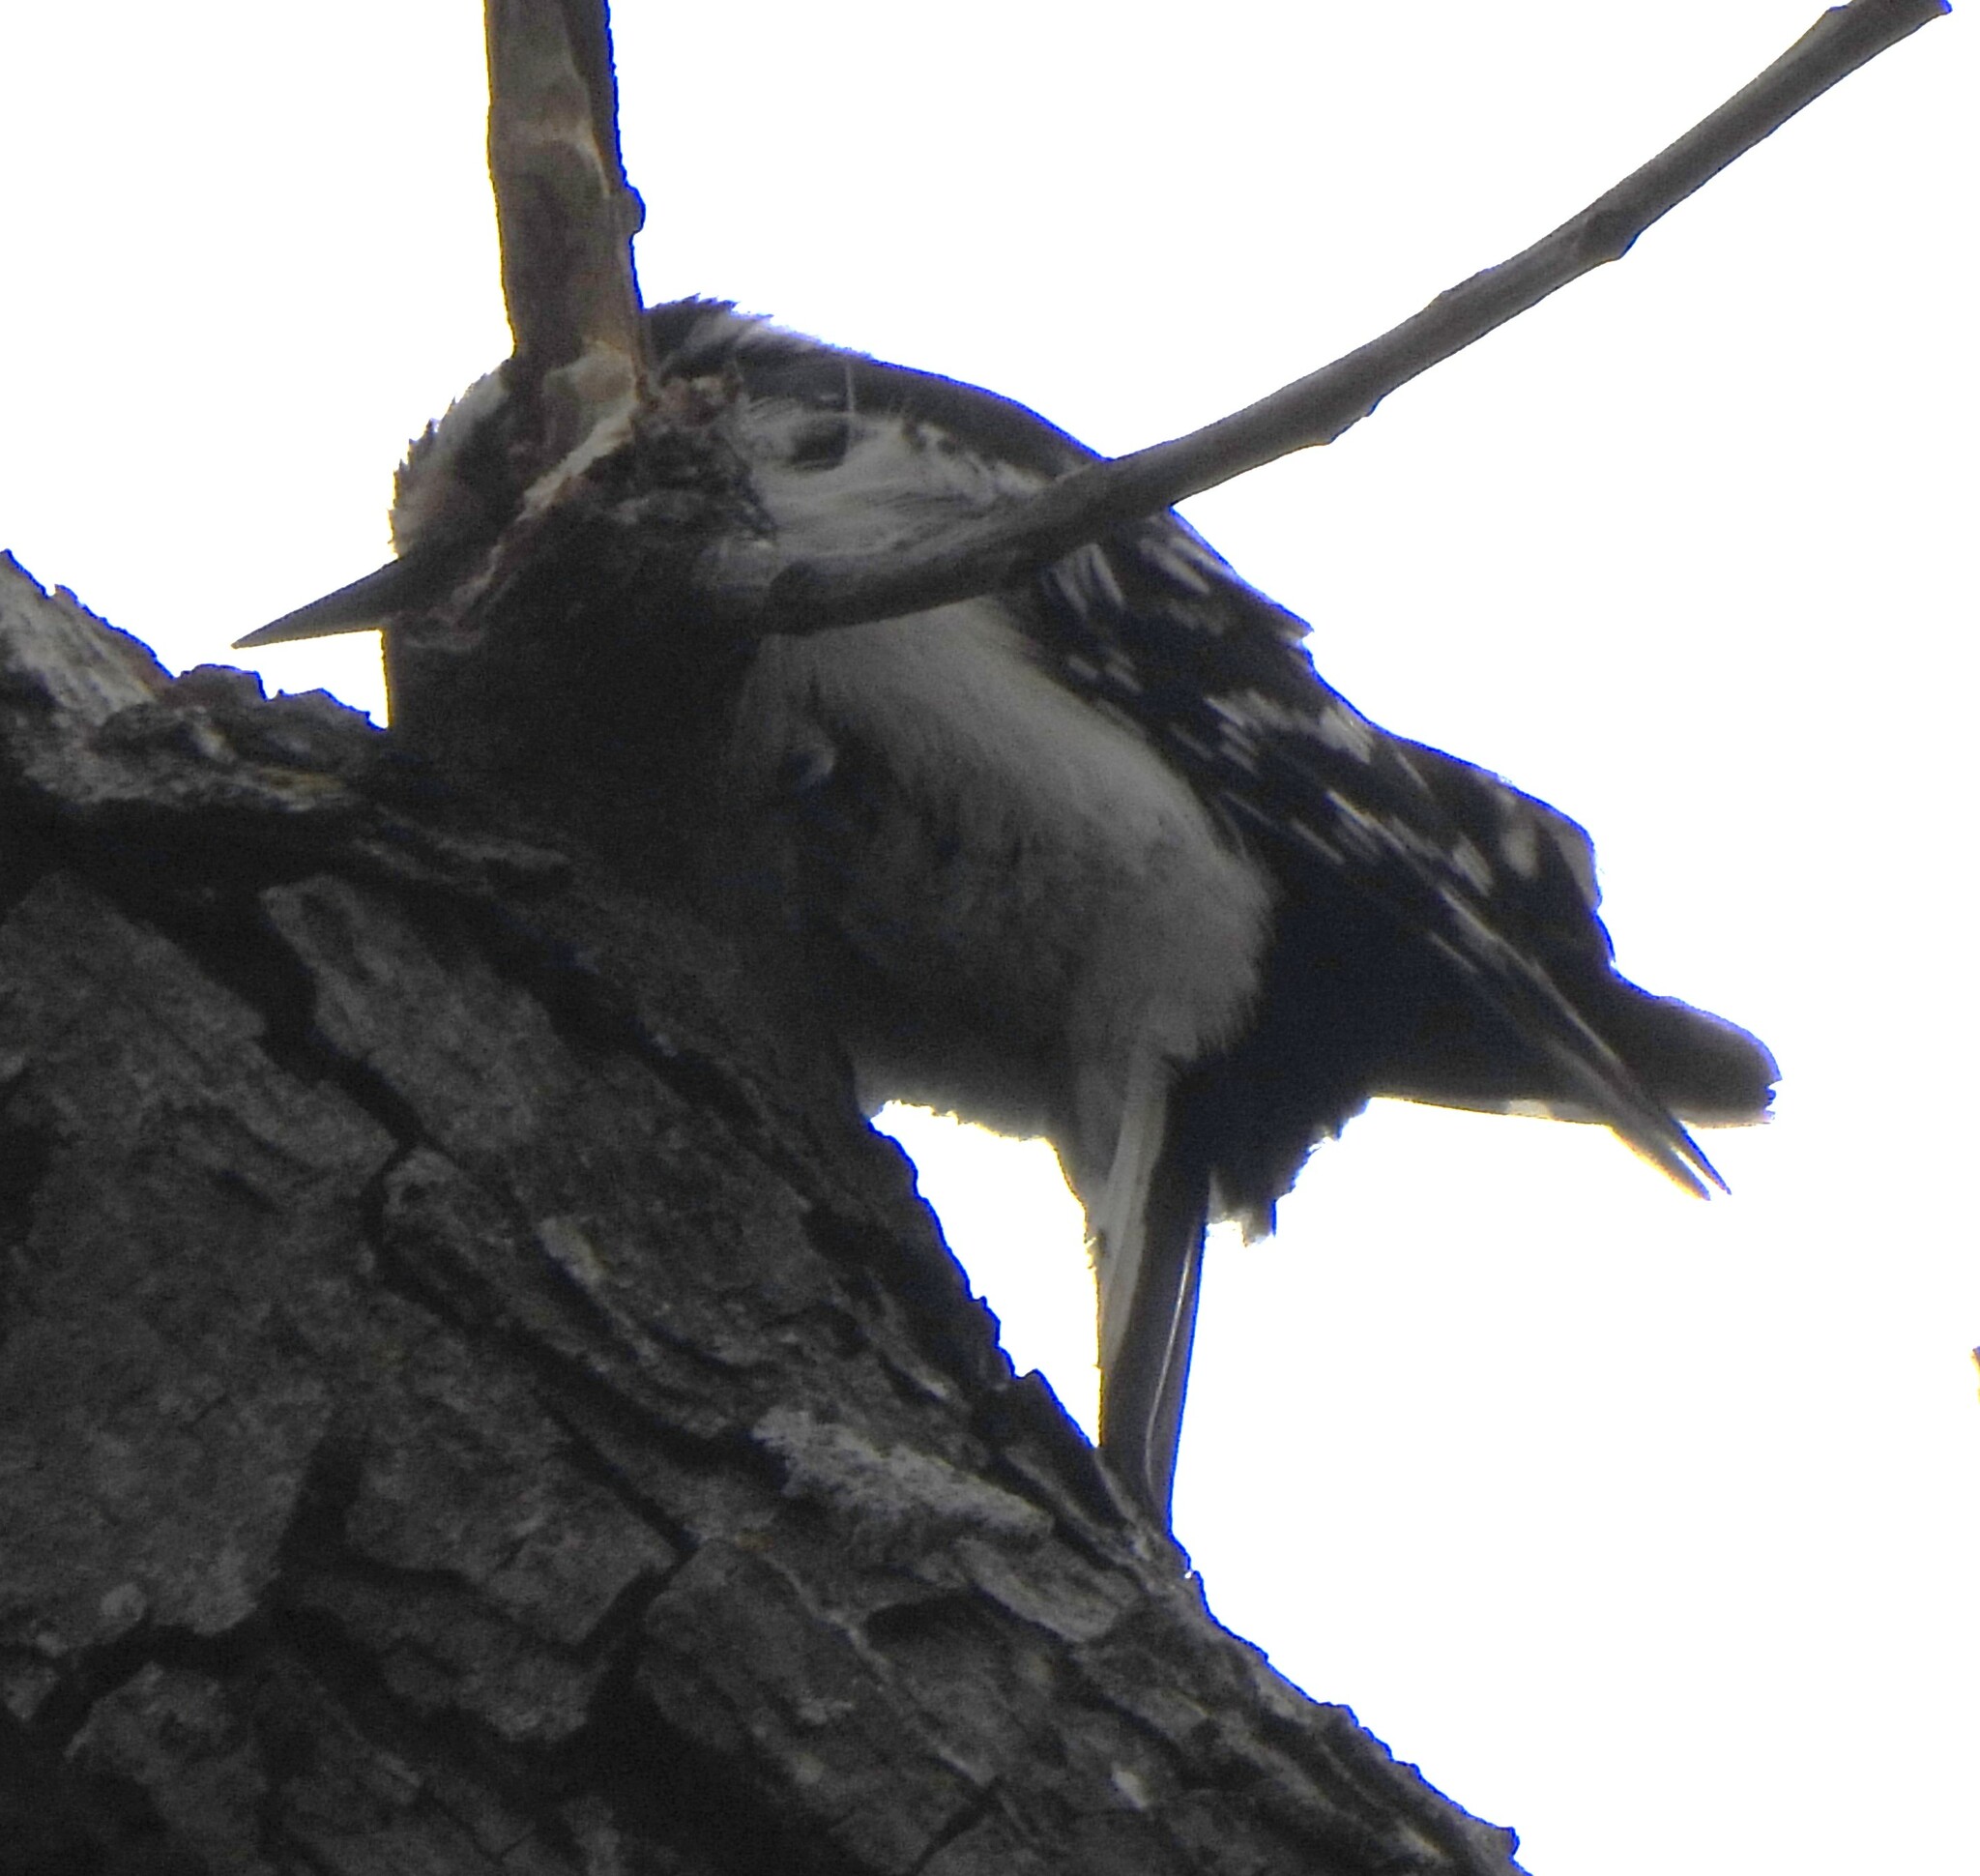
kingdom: Animalia
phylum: Chordata
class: Aves
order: Piciformes
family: Picidae
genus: Dryobates
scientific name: Dryobates pubescens
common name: Downy woodpecker
